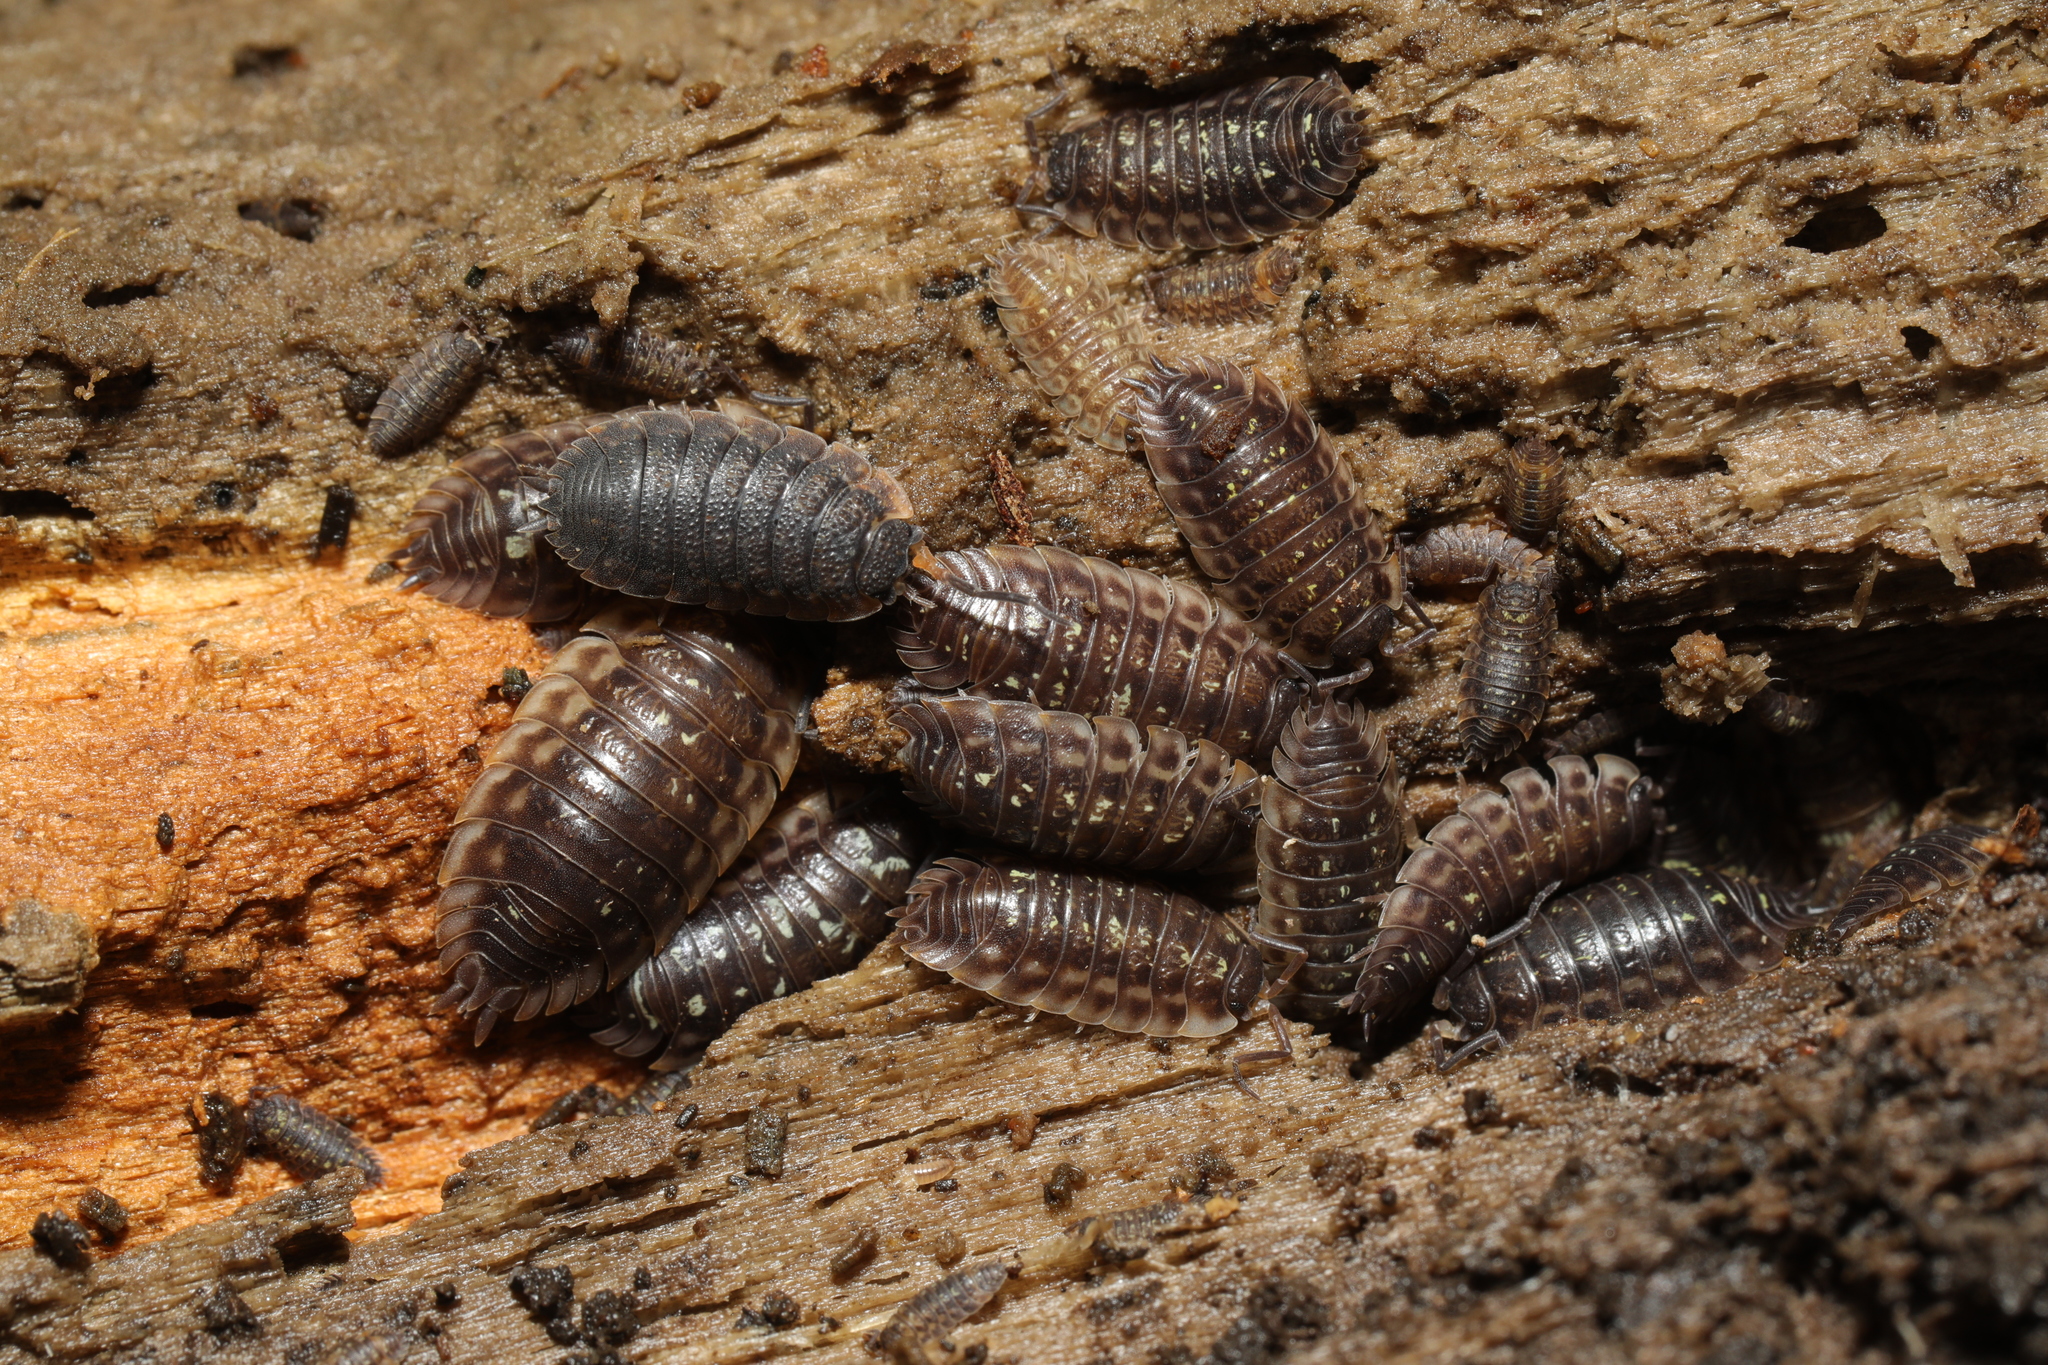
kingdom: Animalia
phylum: Arthropoda
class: Malacostraca
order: Isopoda
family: Oniscidae
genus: Oniscus
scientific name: Oniscus asellus
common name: Common shiny woodlouse
